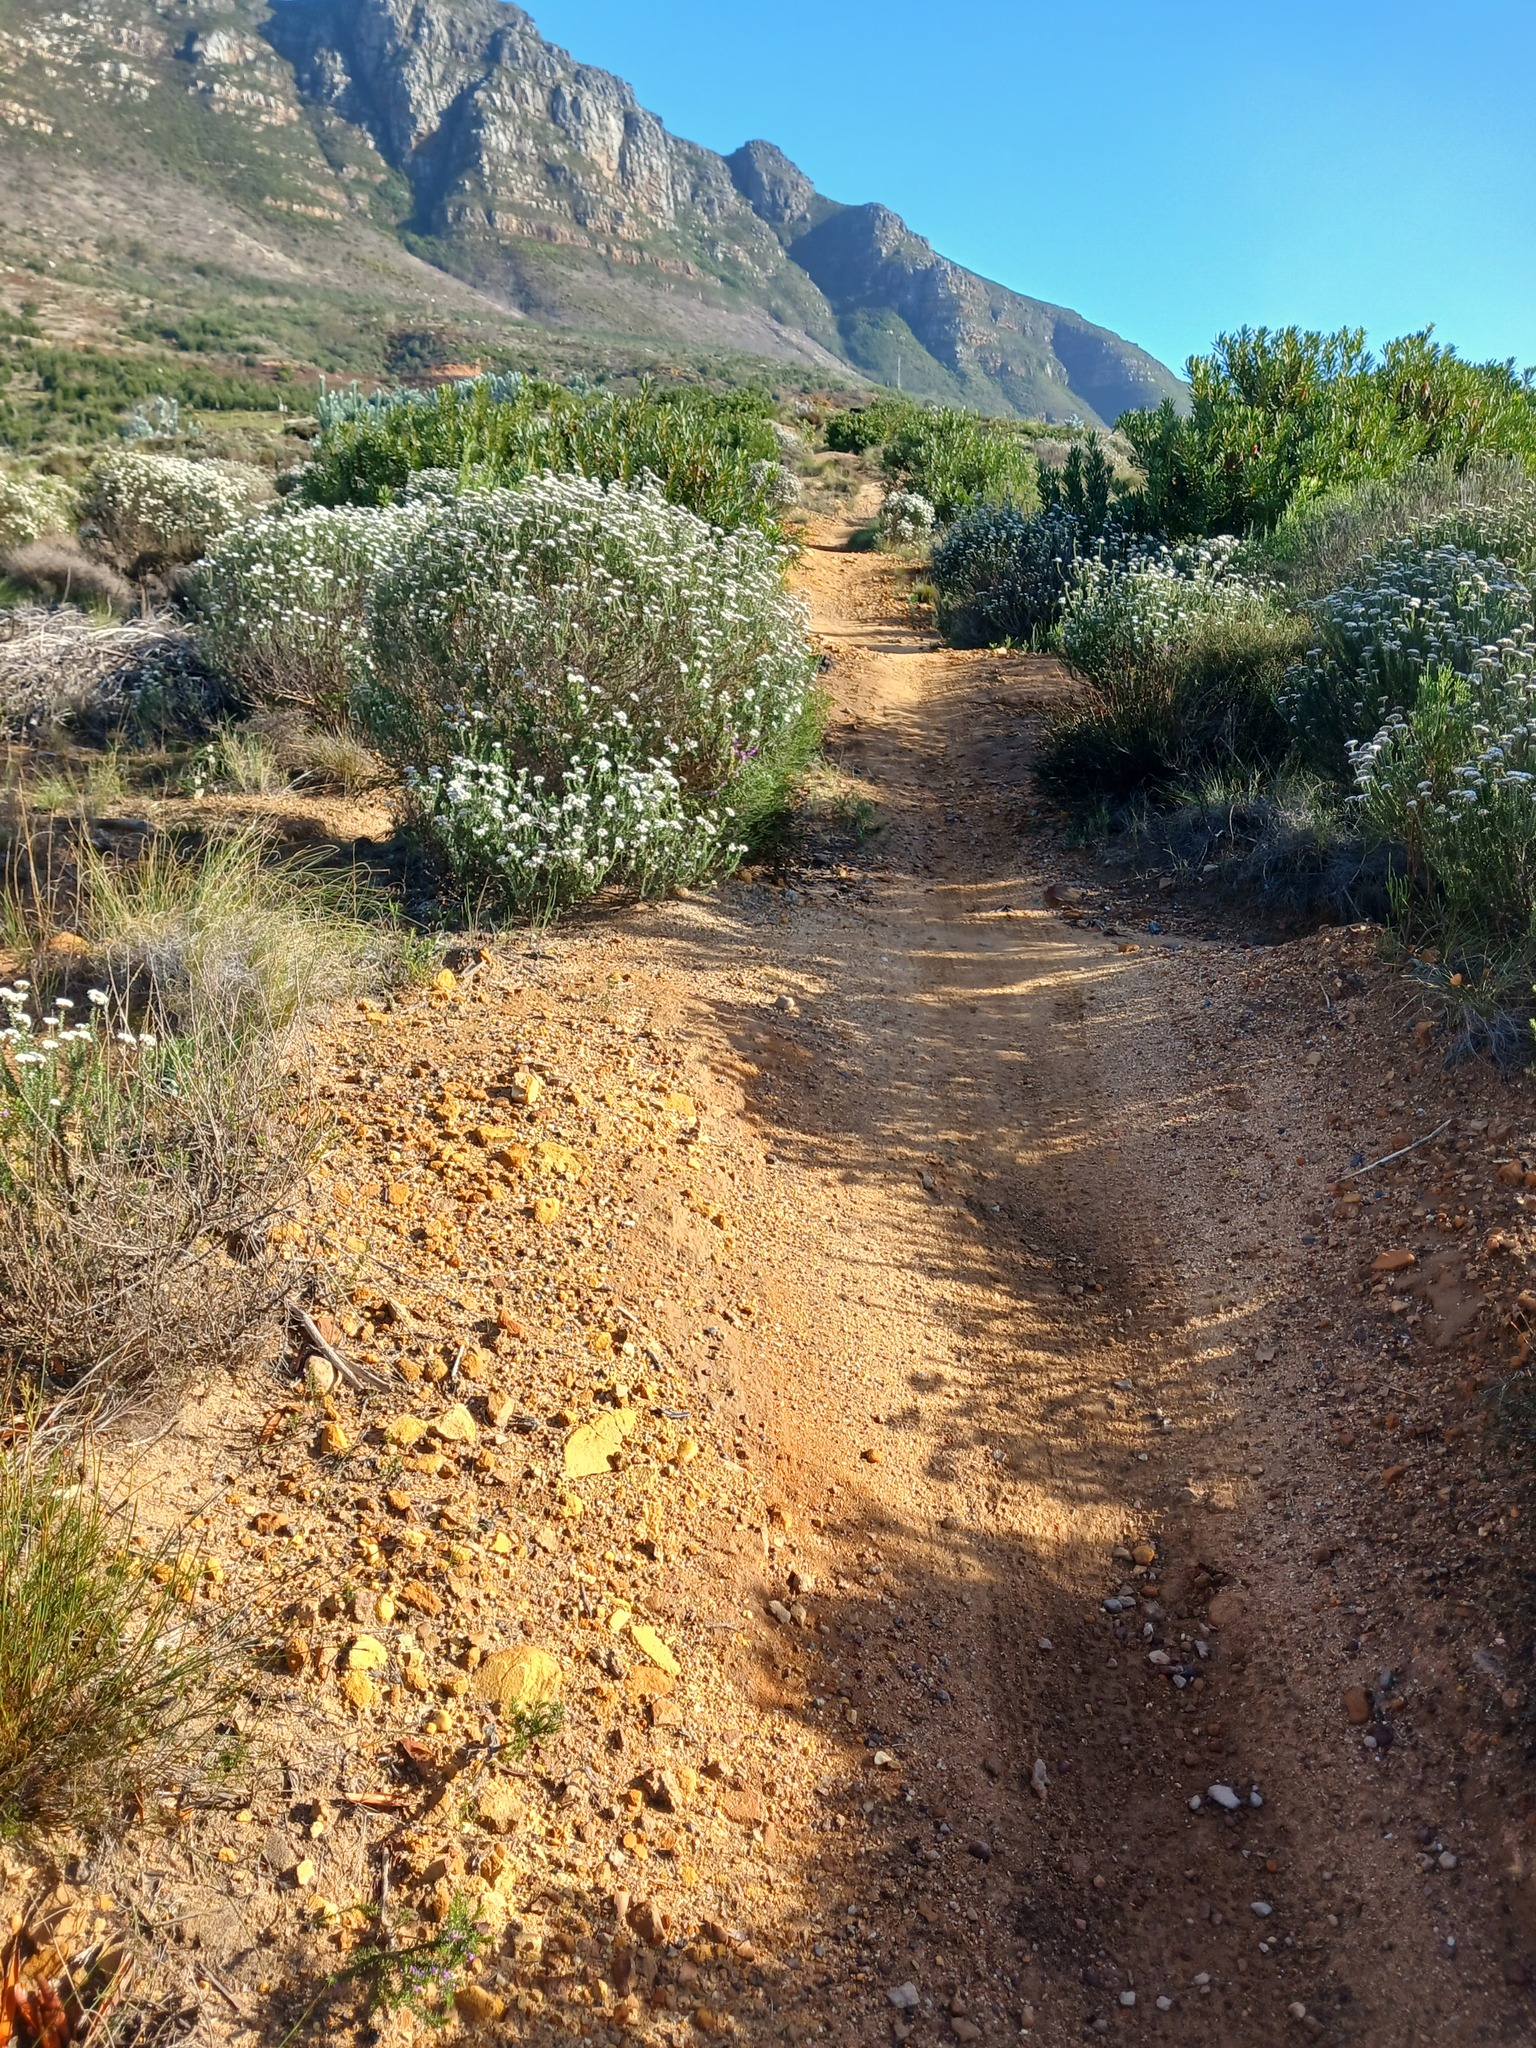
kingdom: Plantae
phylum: Tracheophyta
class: Magnoliopsida
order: Asterales
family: Asteraceae
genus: Metalasia
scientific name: Metalasia densa
